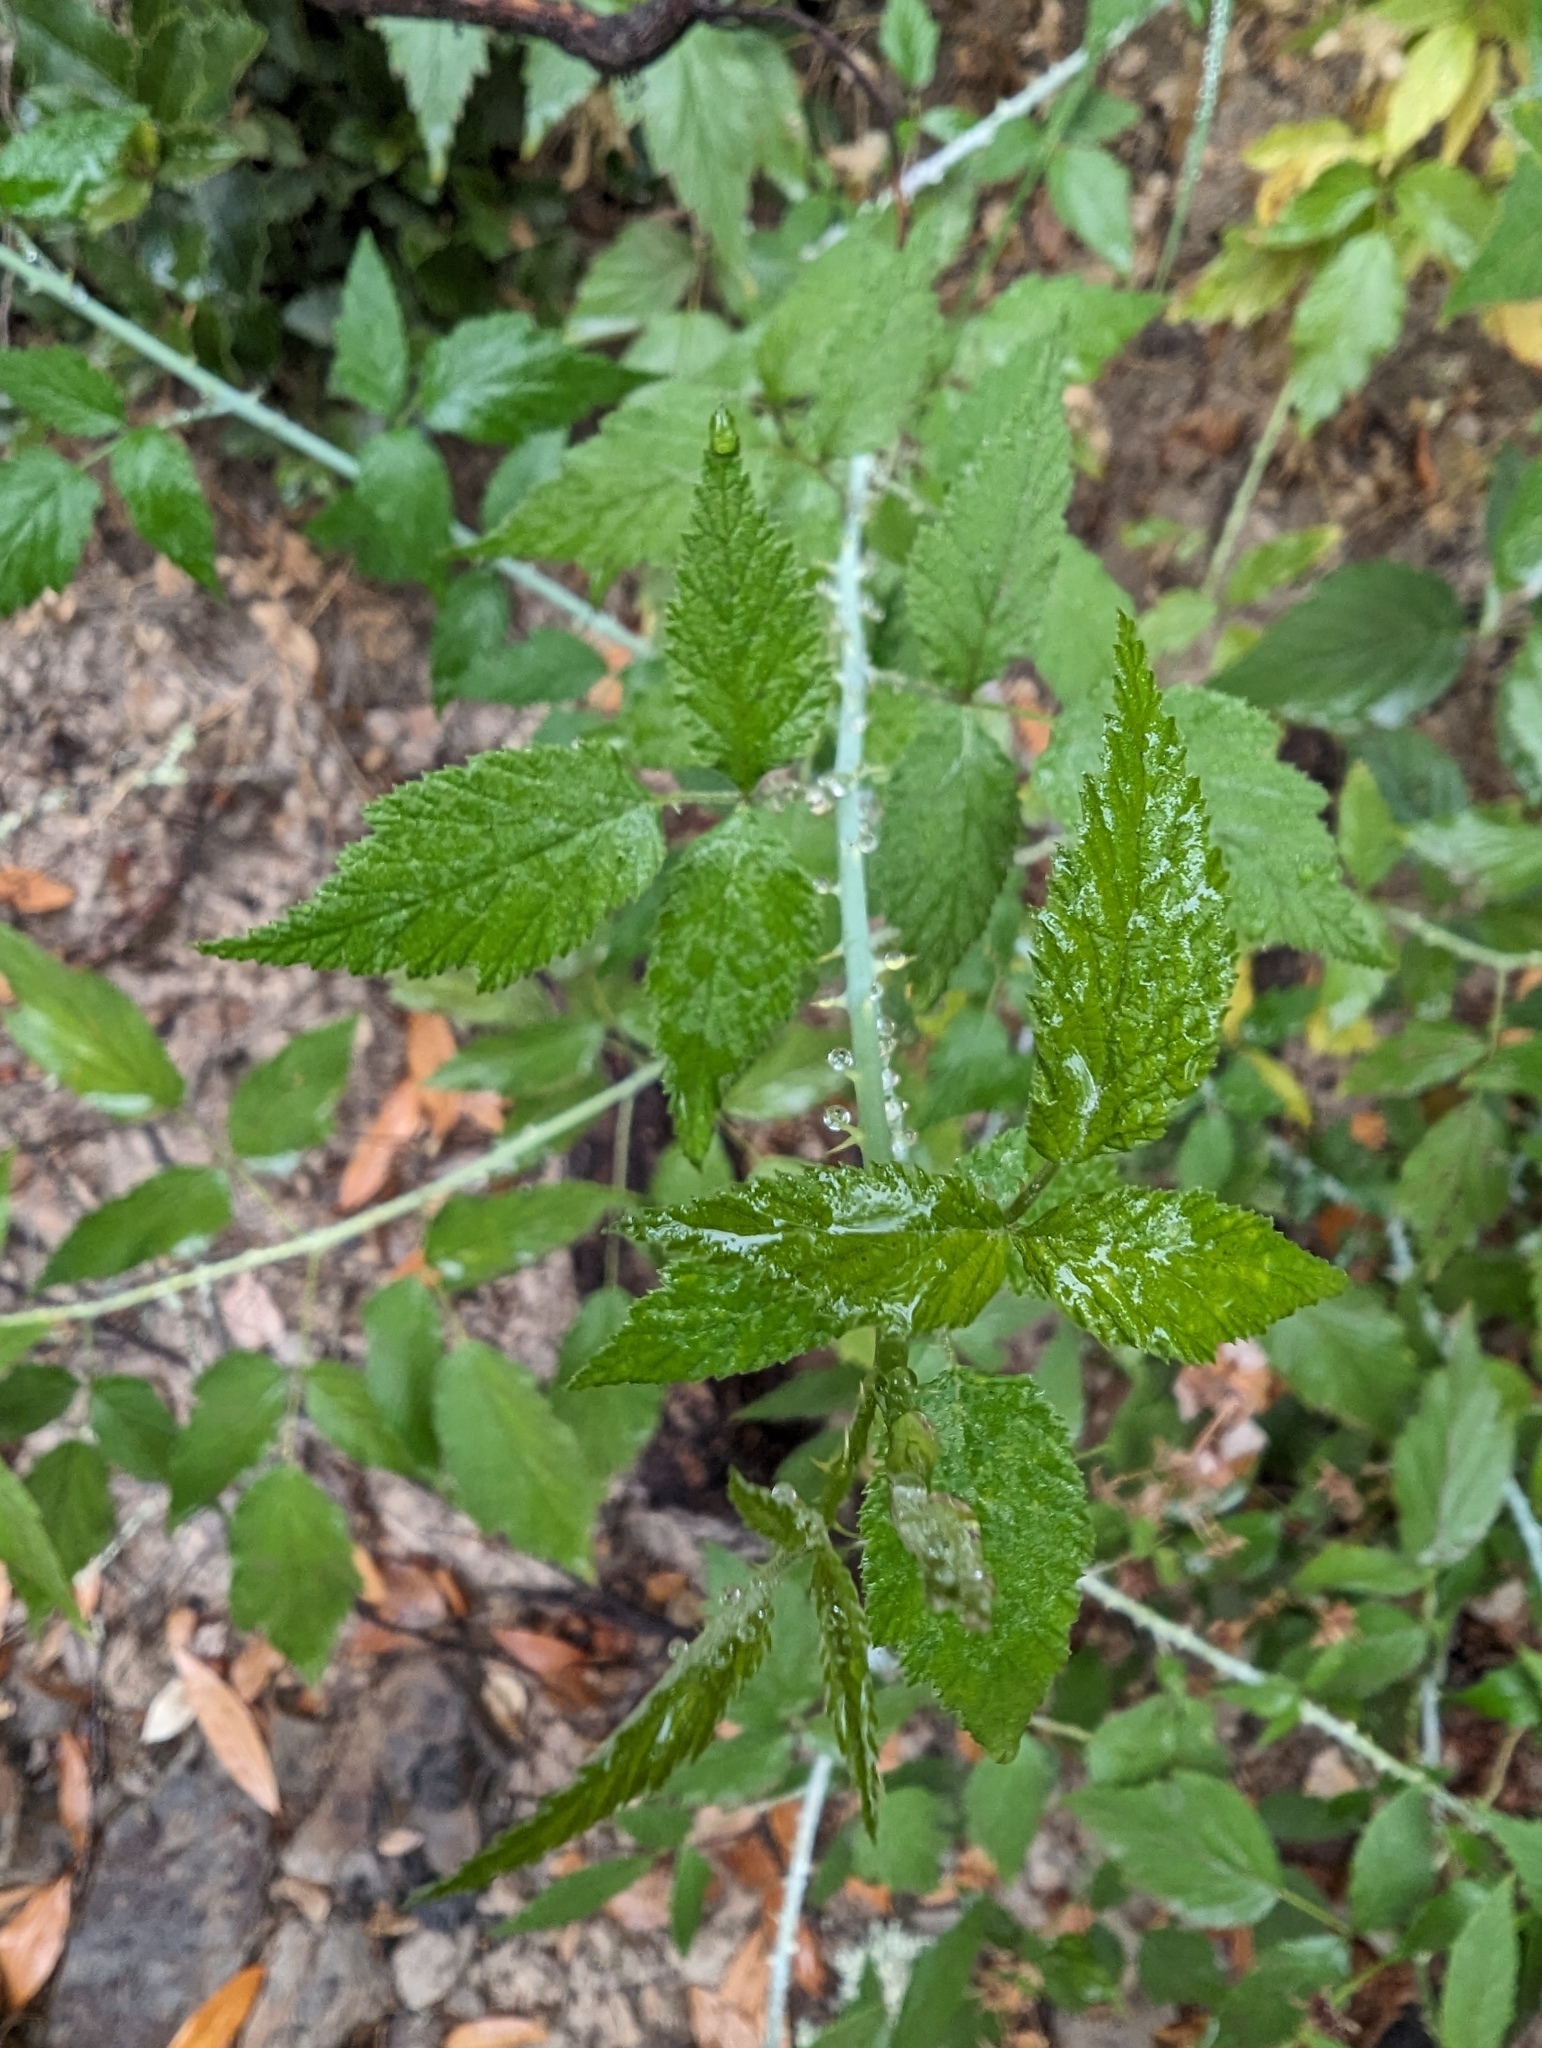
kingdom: Plantae
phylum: Tracheophyta
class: Magnoliopsida
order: Rosales
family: Rosaceae
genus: Rubus
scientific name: Rubus leucodermis
